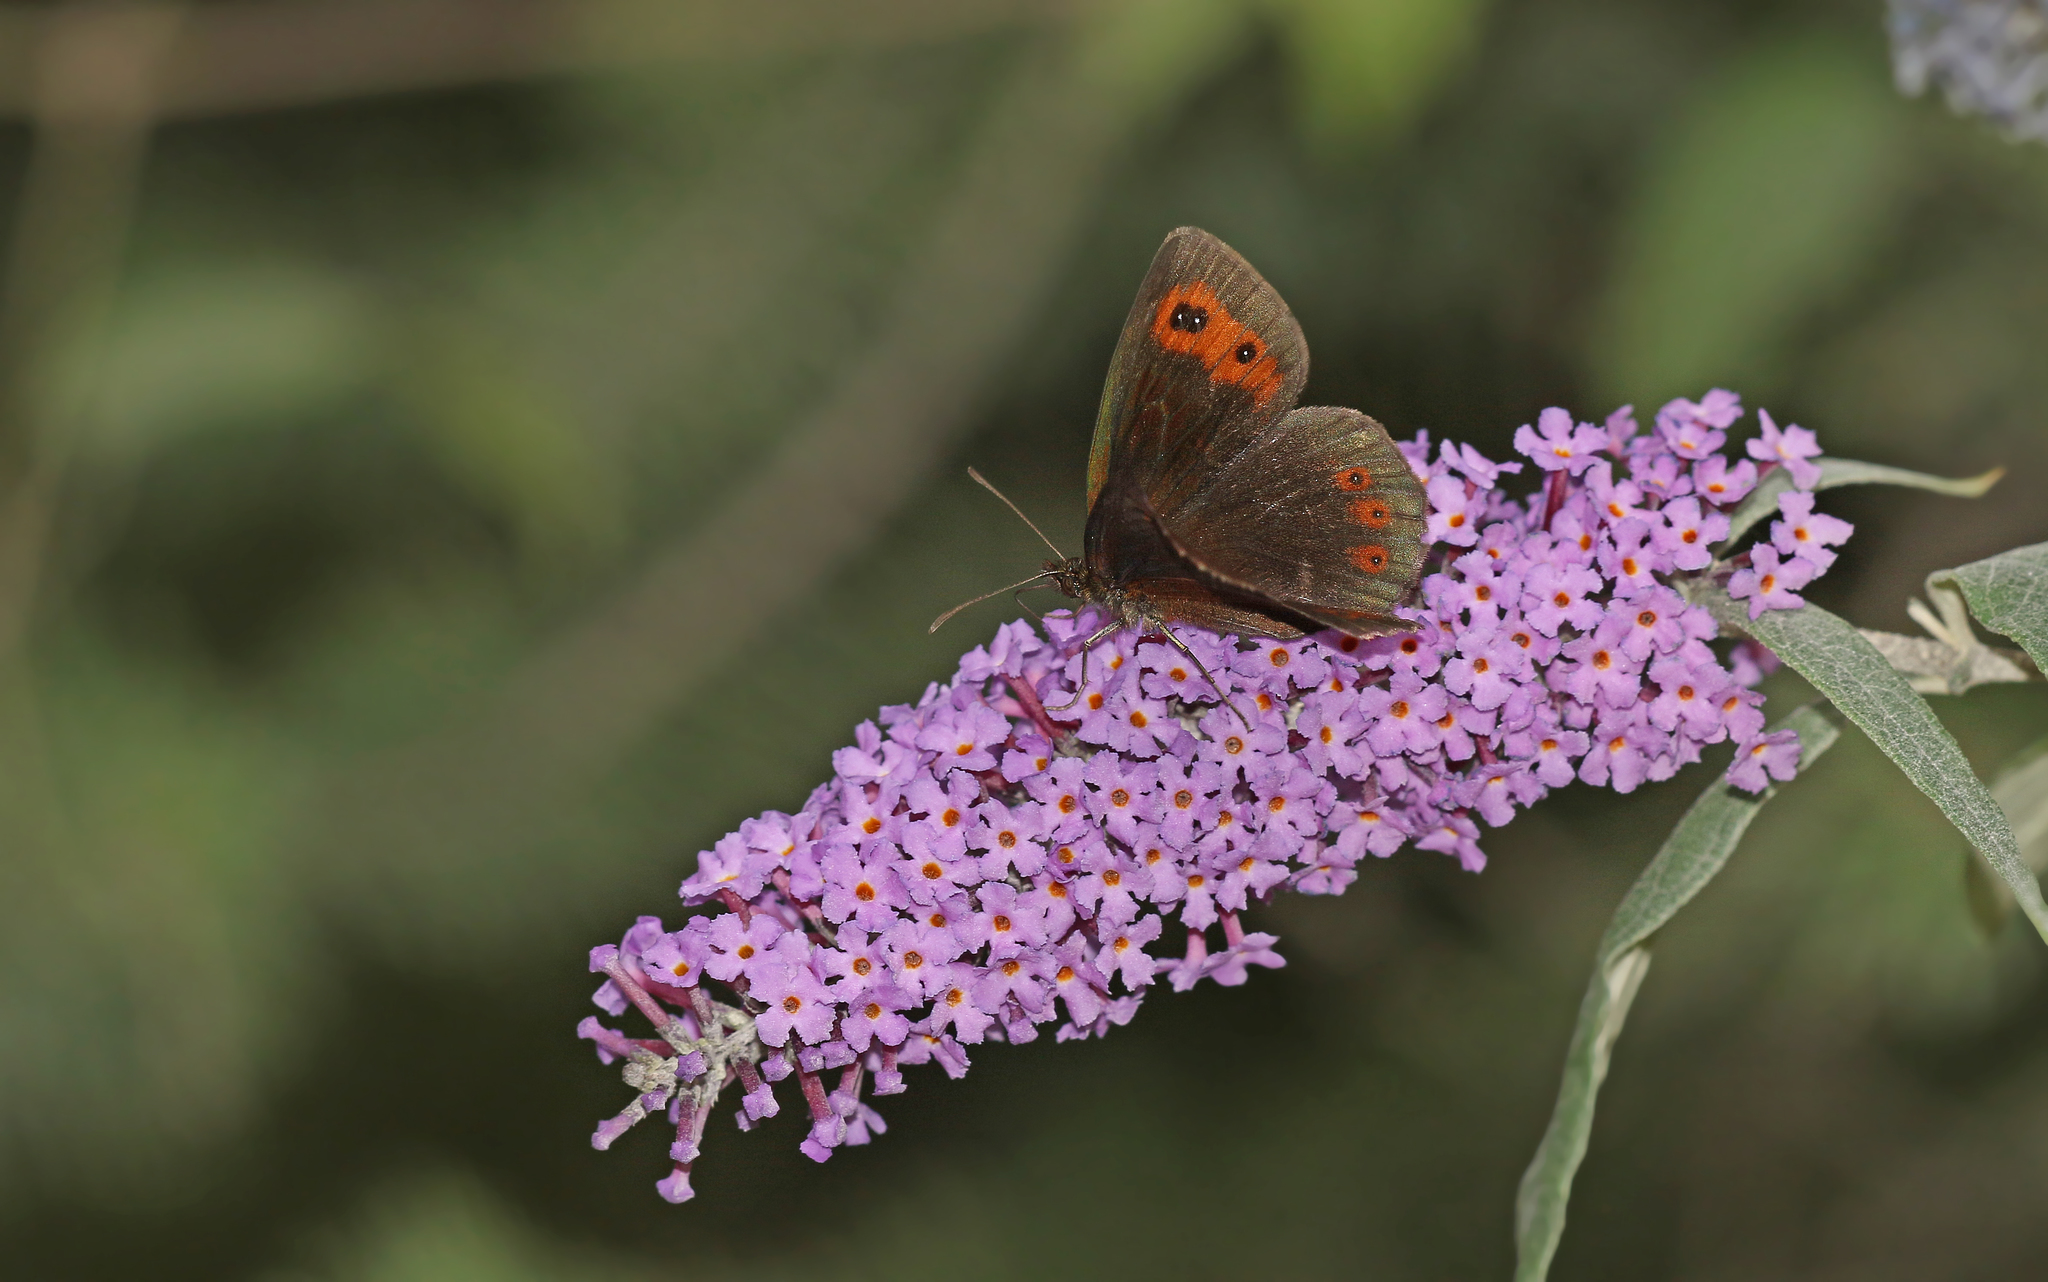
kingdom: Animalia
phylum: Arthropoda
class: Insecta
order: Lepidoptera
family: Nymphalidae
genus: Erebia
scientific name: Erebia aethiops
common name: Scotch argus
